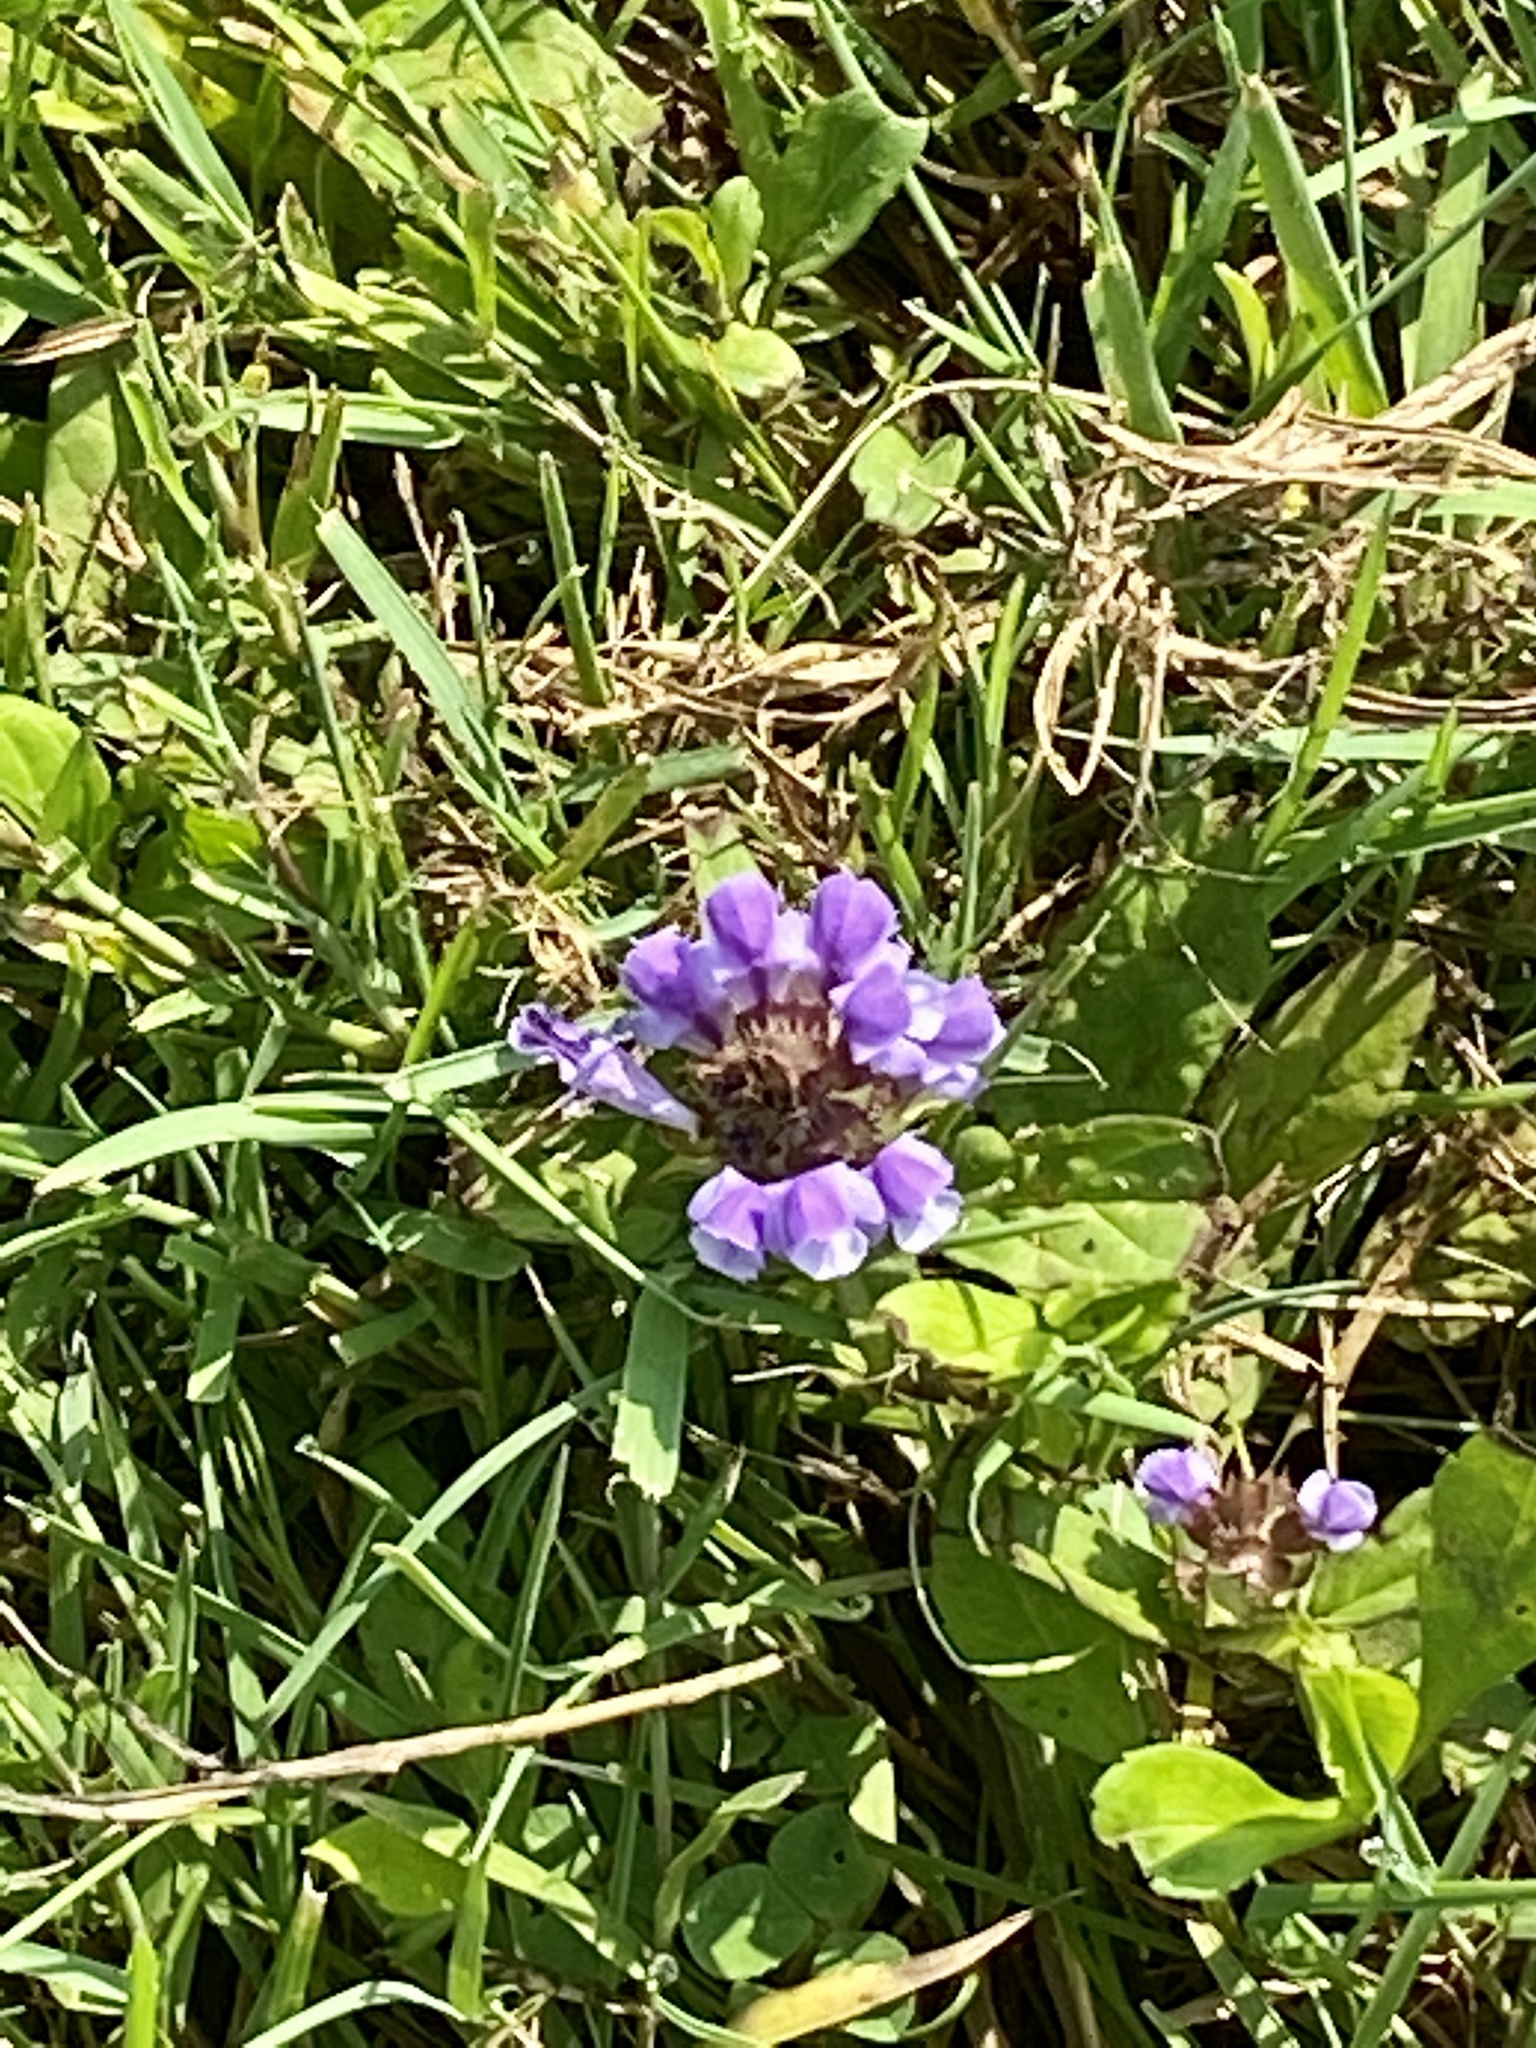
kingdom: Plantae
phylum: Tracheophyta
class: Magnoliopsida
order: Lamiales
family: Lamiaceae
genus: Prunella
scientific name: Prunella vulgaris
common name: Heal-all
